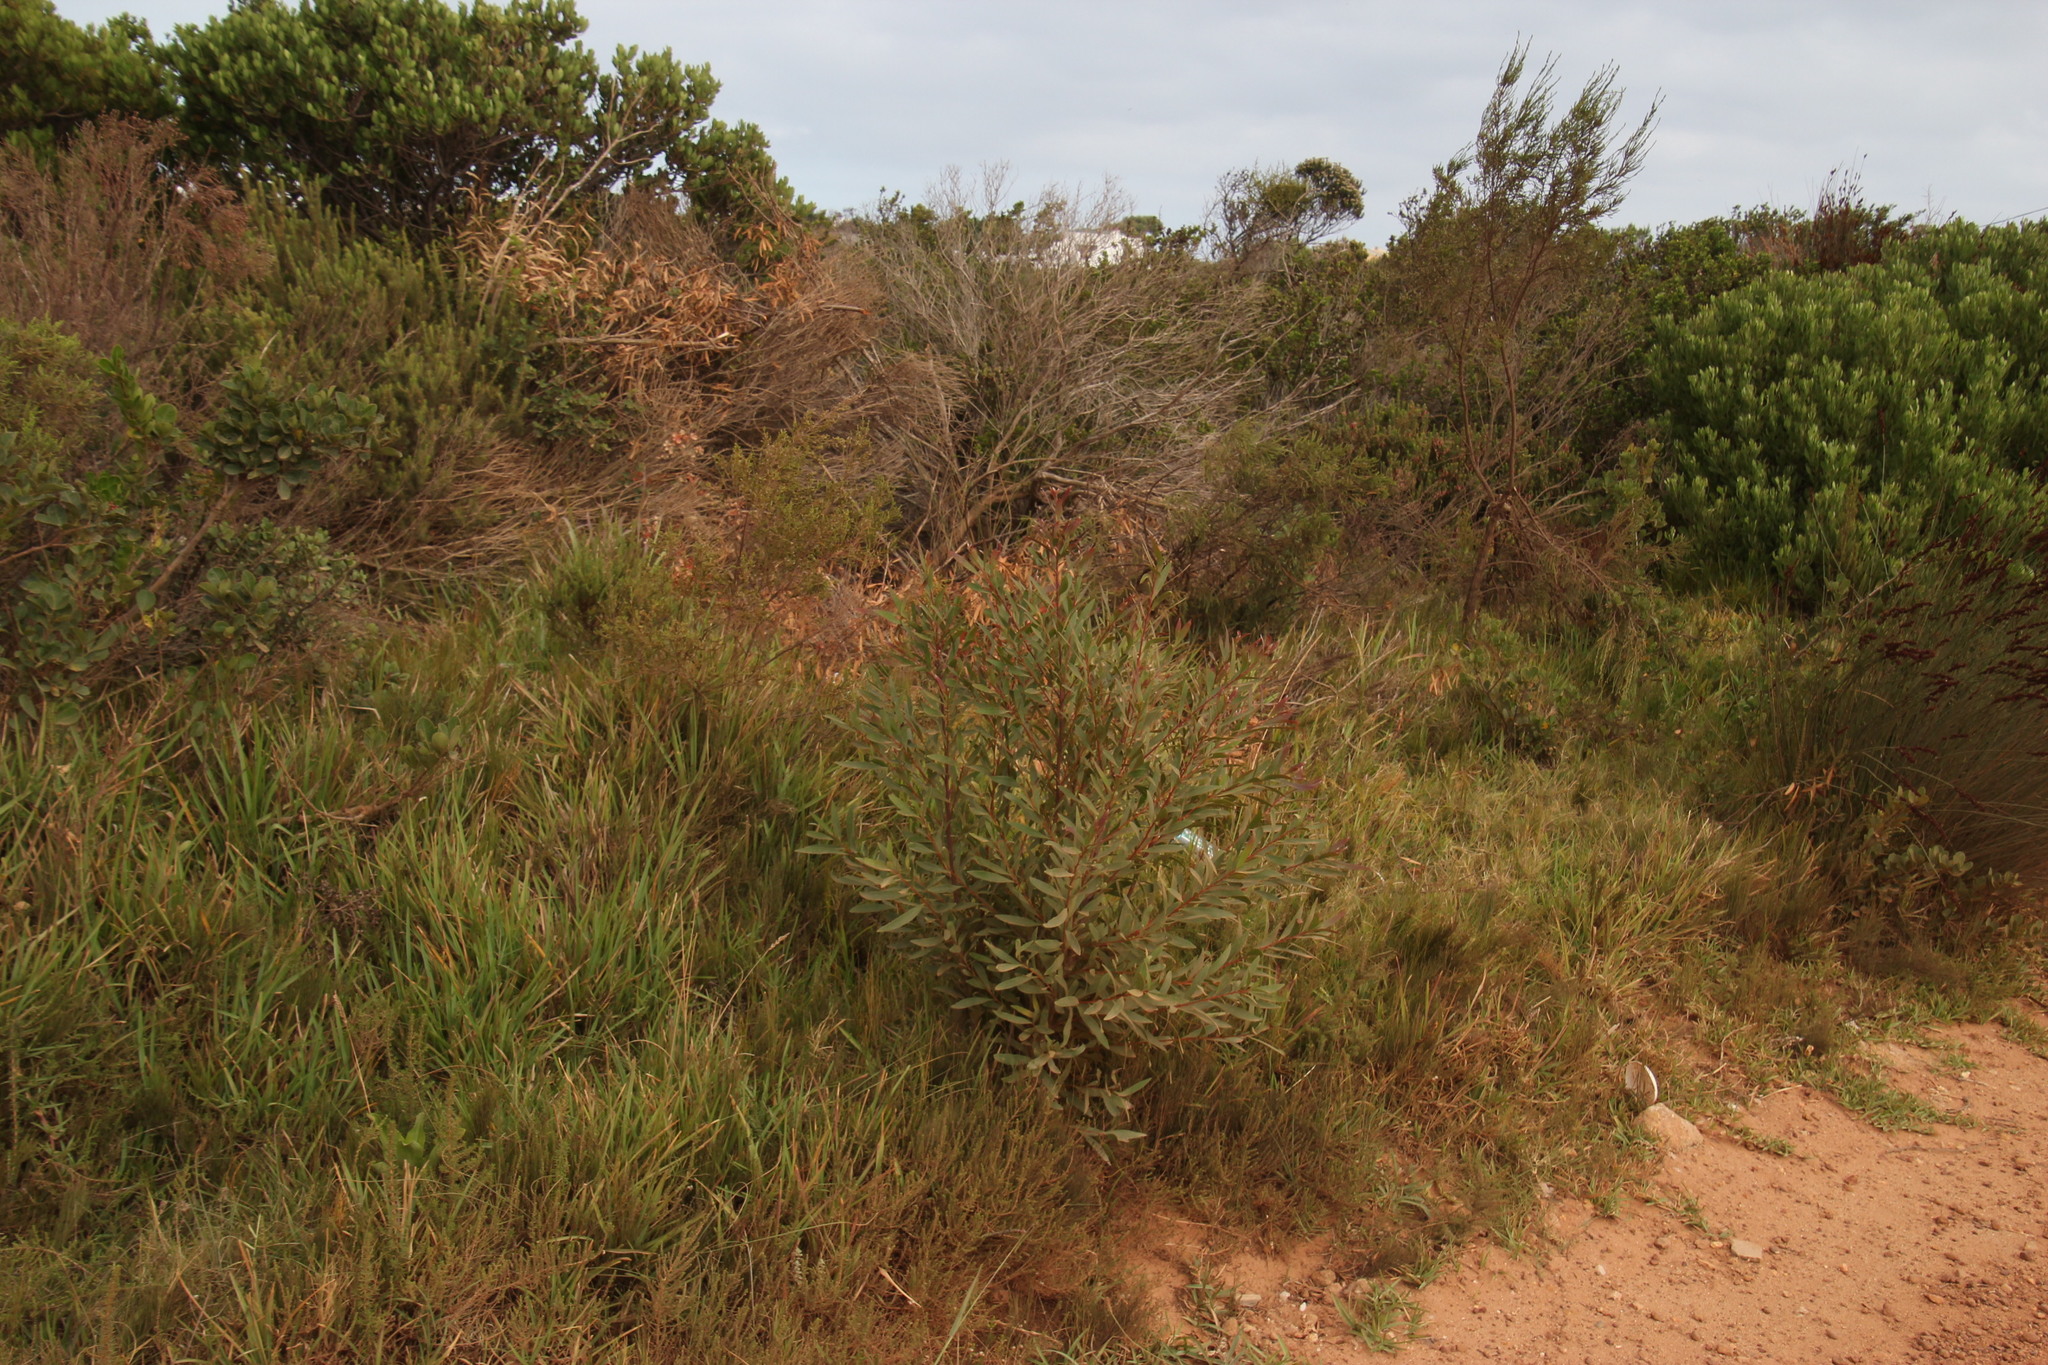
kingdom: Plantae
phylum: Tracheophyta
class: Magnoliopsida
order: Proteales
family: Proteaceae
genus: Hakea
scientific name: Hakea salicifolia
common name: Willow hakea
